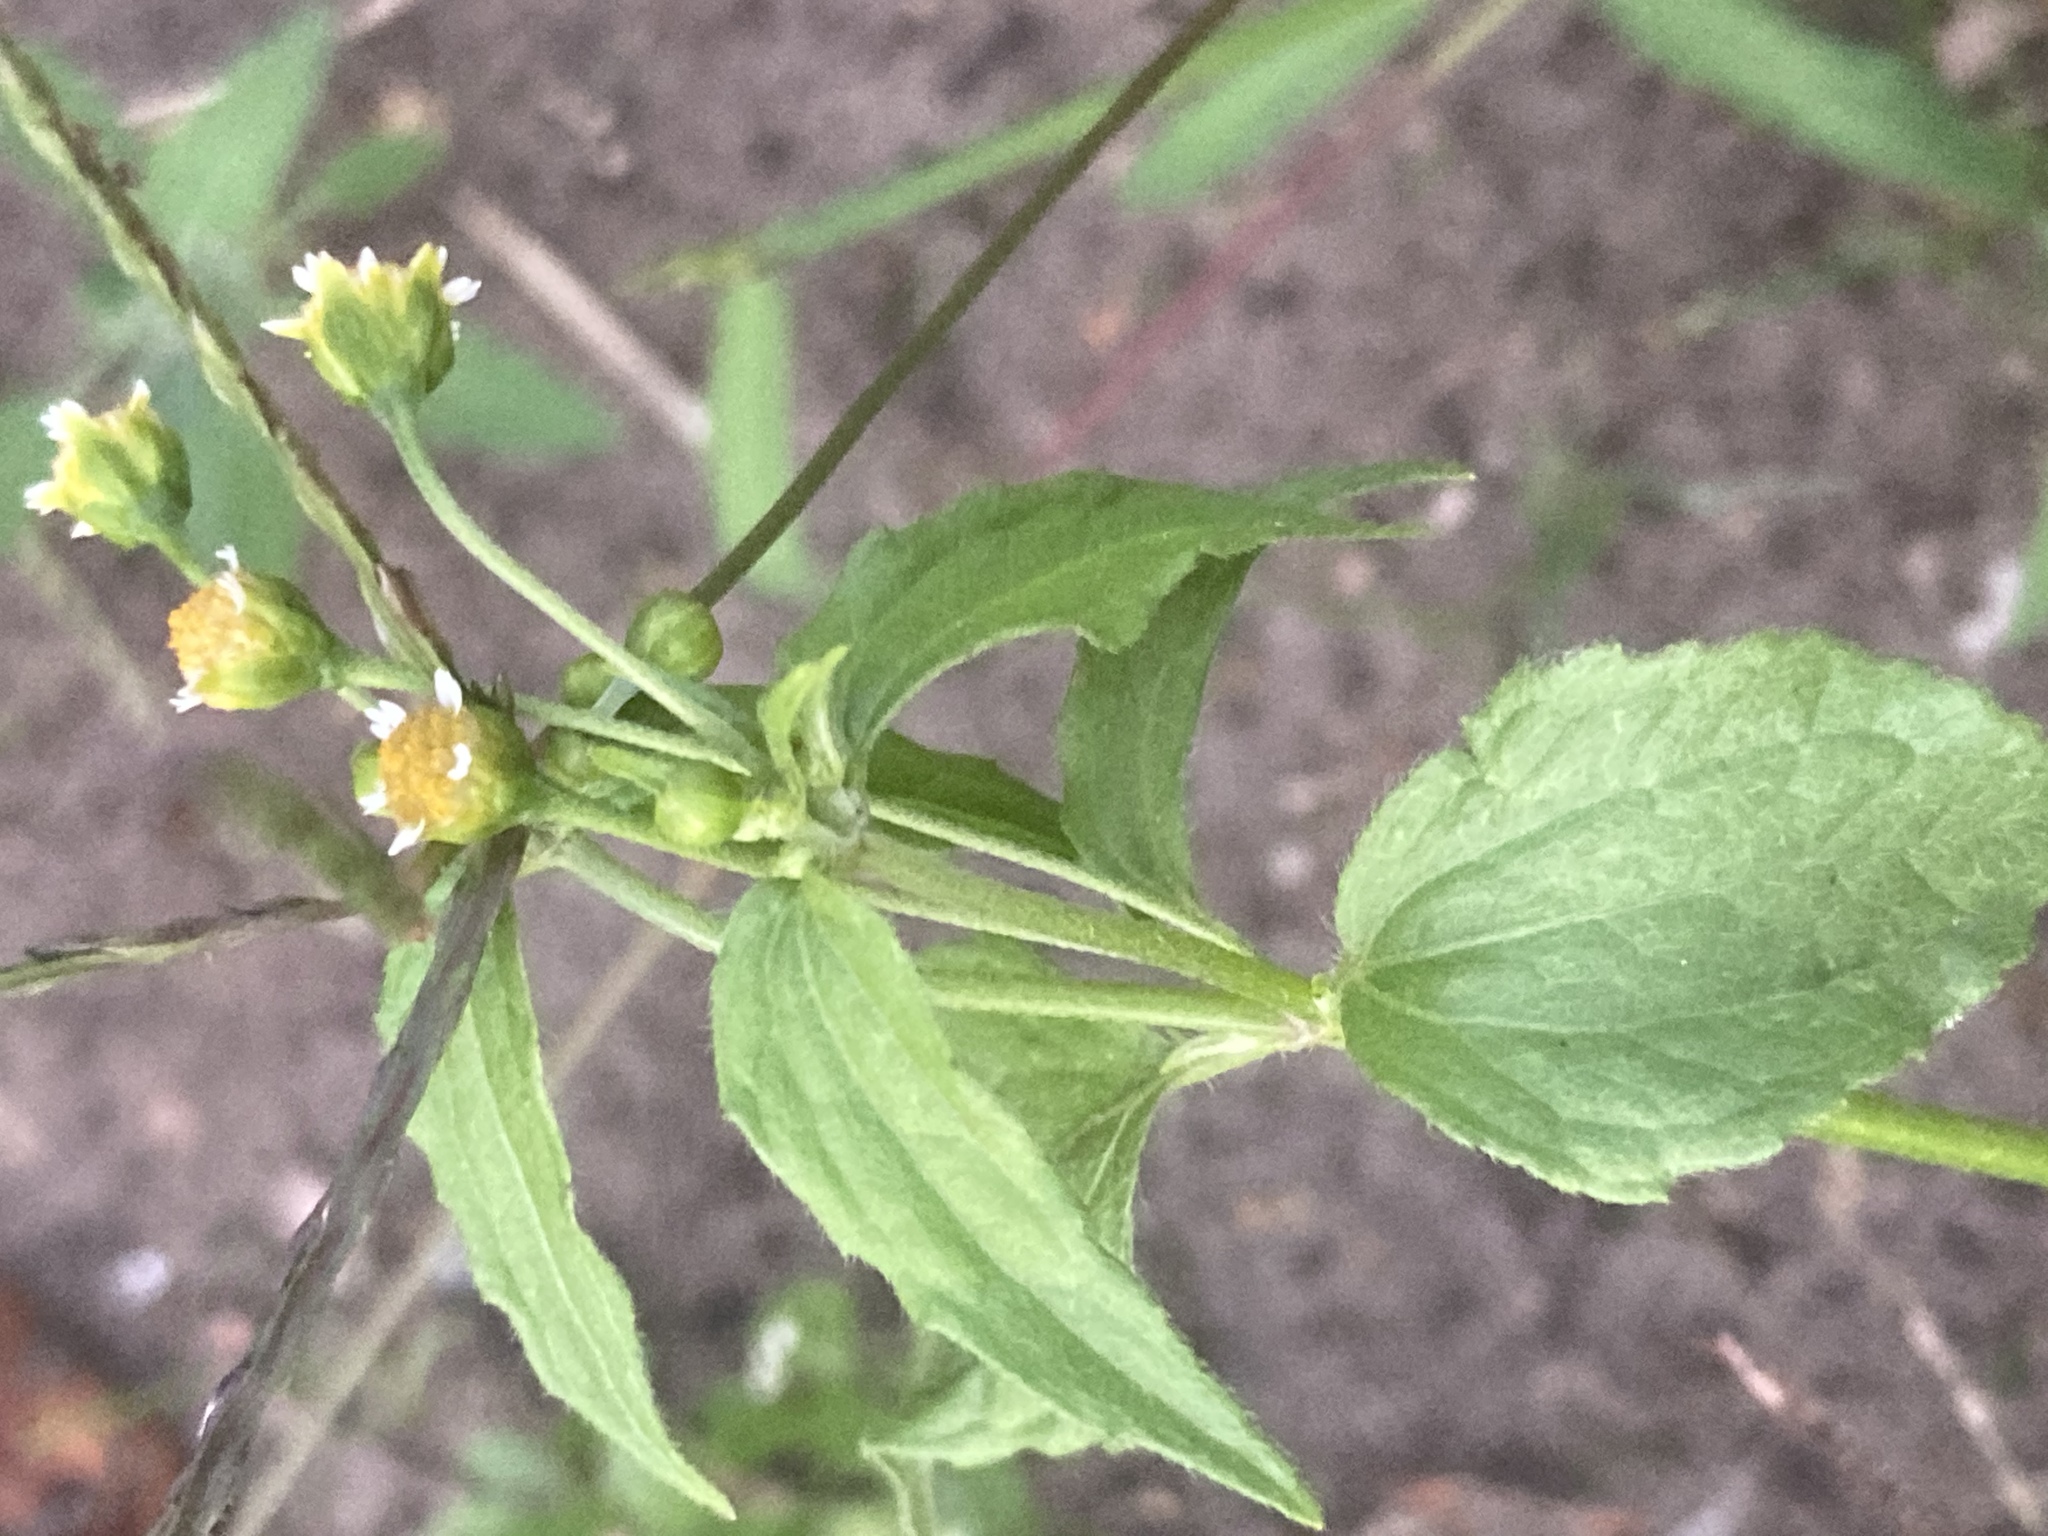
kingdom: Plantae
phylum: Tracheophyta
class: Magnoliopsida
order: Asterales
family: Asteraceae
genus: Galinsoga
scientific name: Galinsoga parviflora
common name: Gallant soldier
